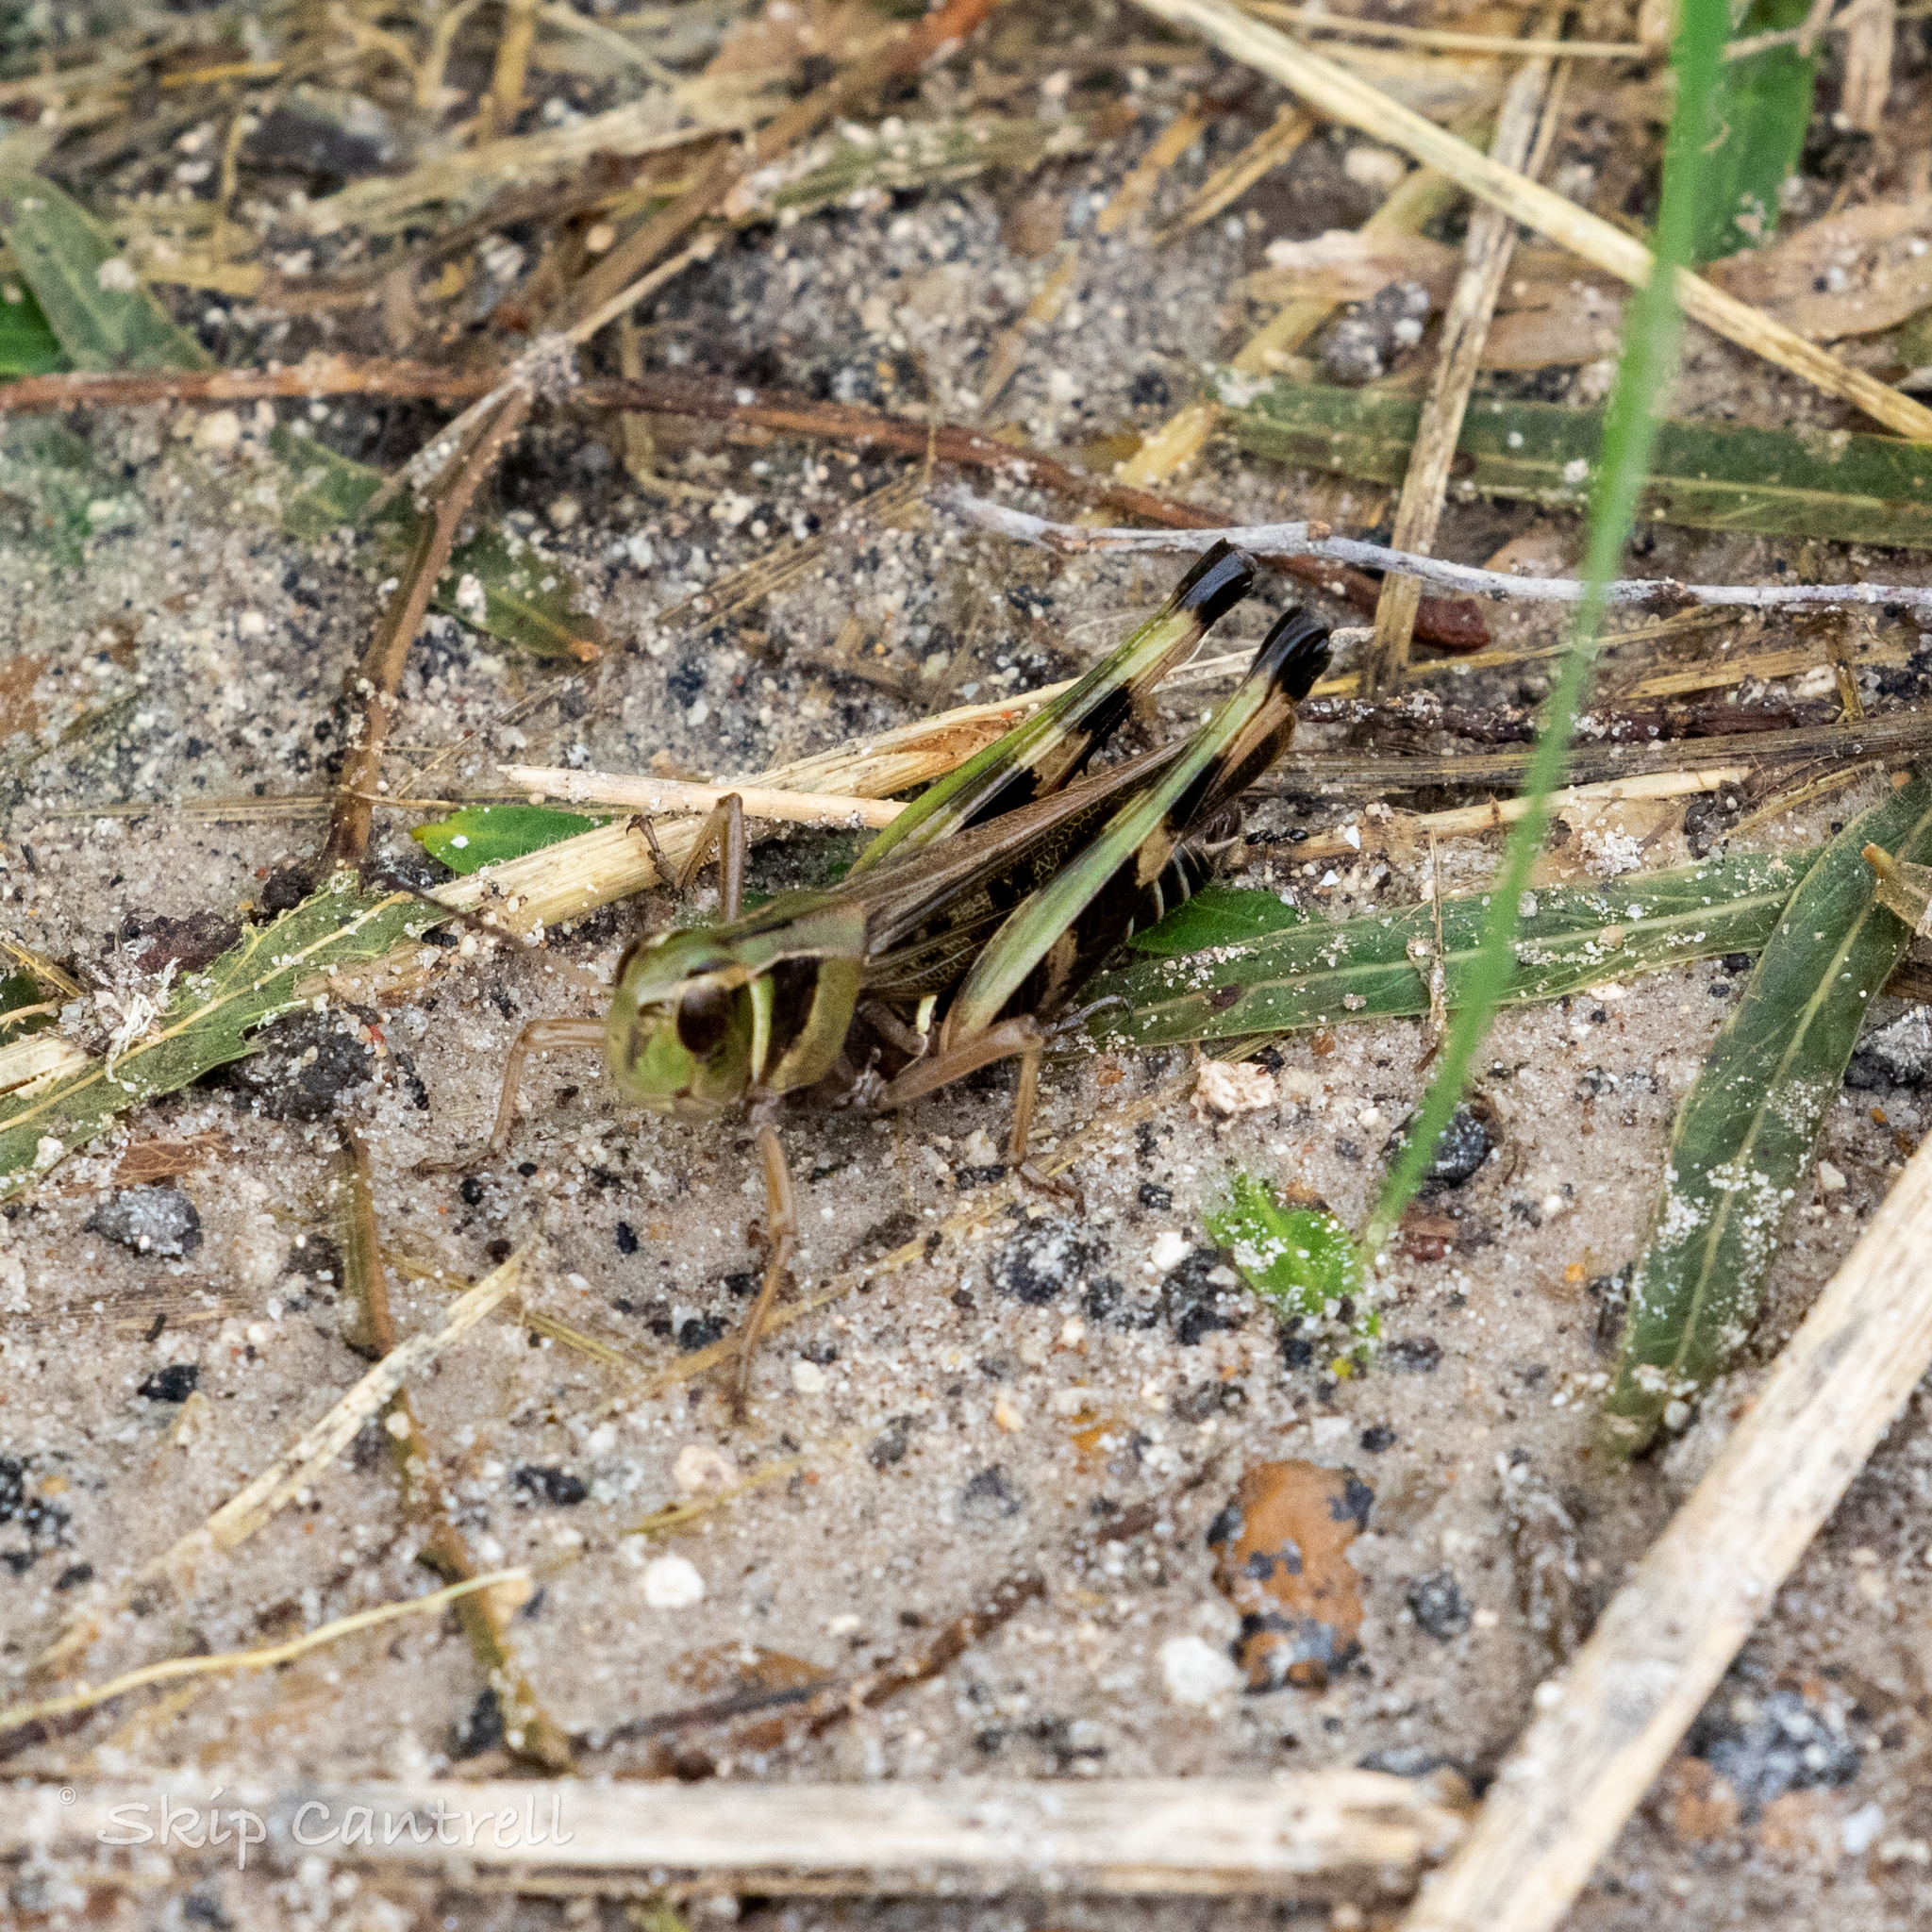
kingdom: Animalia
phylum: Arthropoda
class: Insecta
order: Orthoptera
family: Acrididae
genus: Boopedon
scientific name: Boopedon gracile
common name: Graceful range grasshopper
